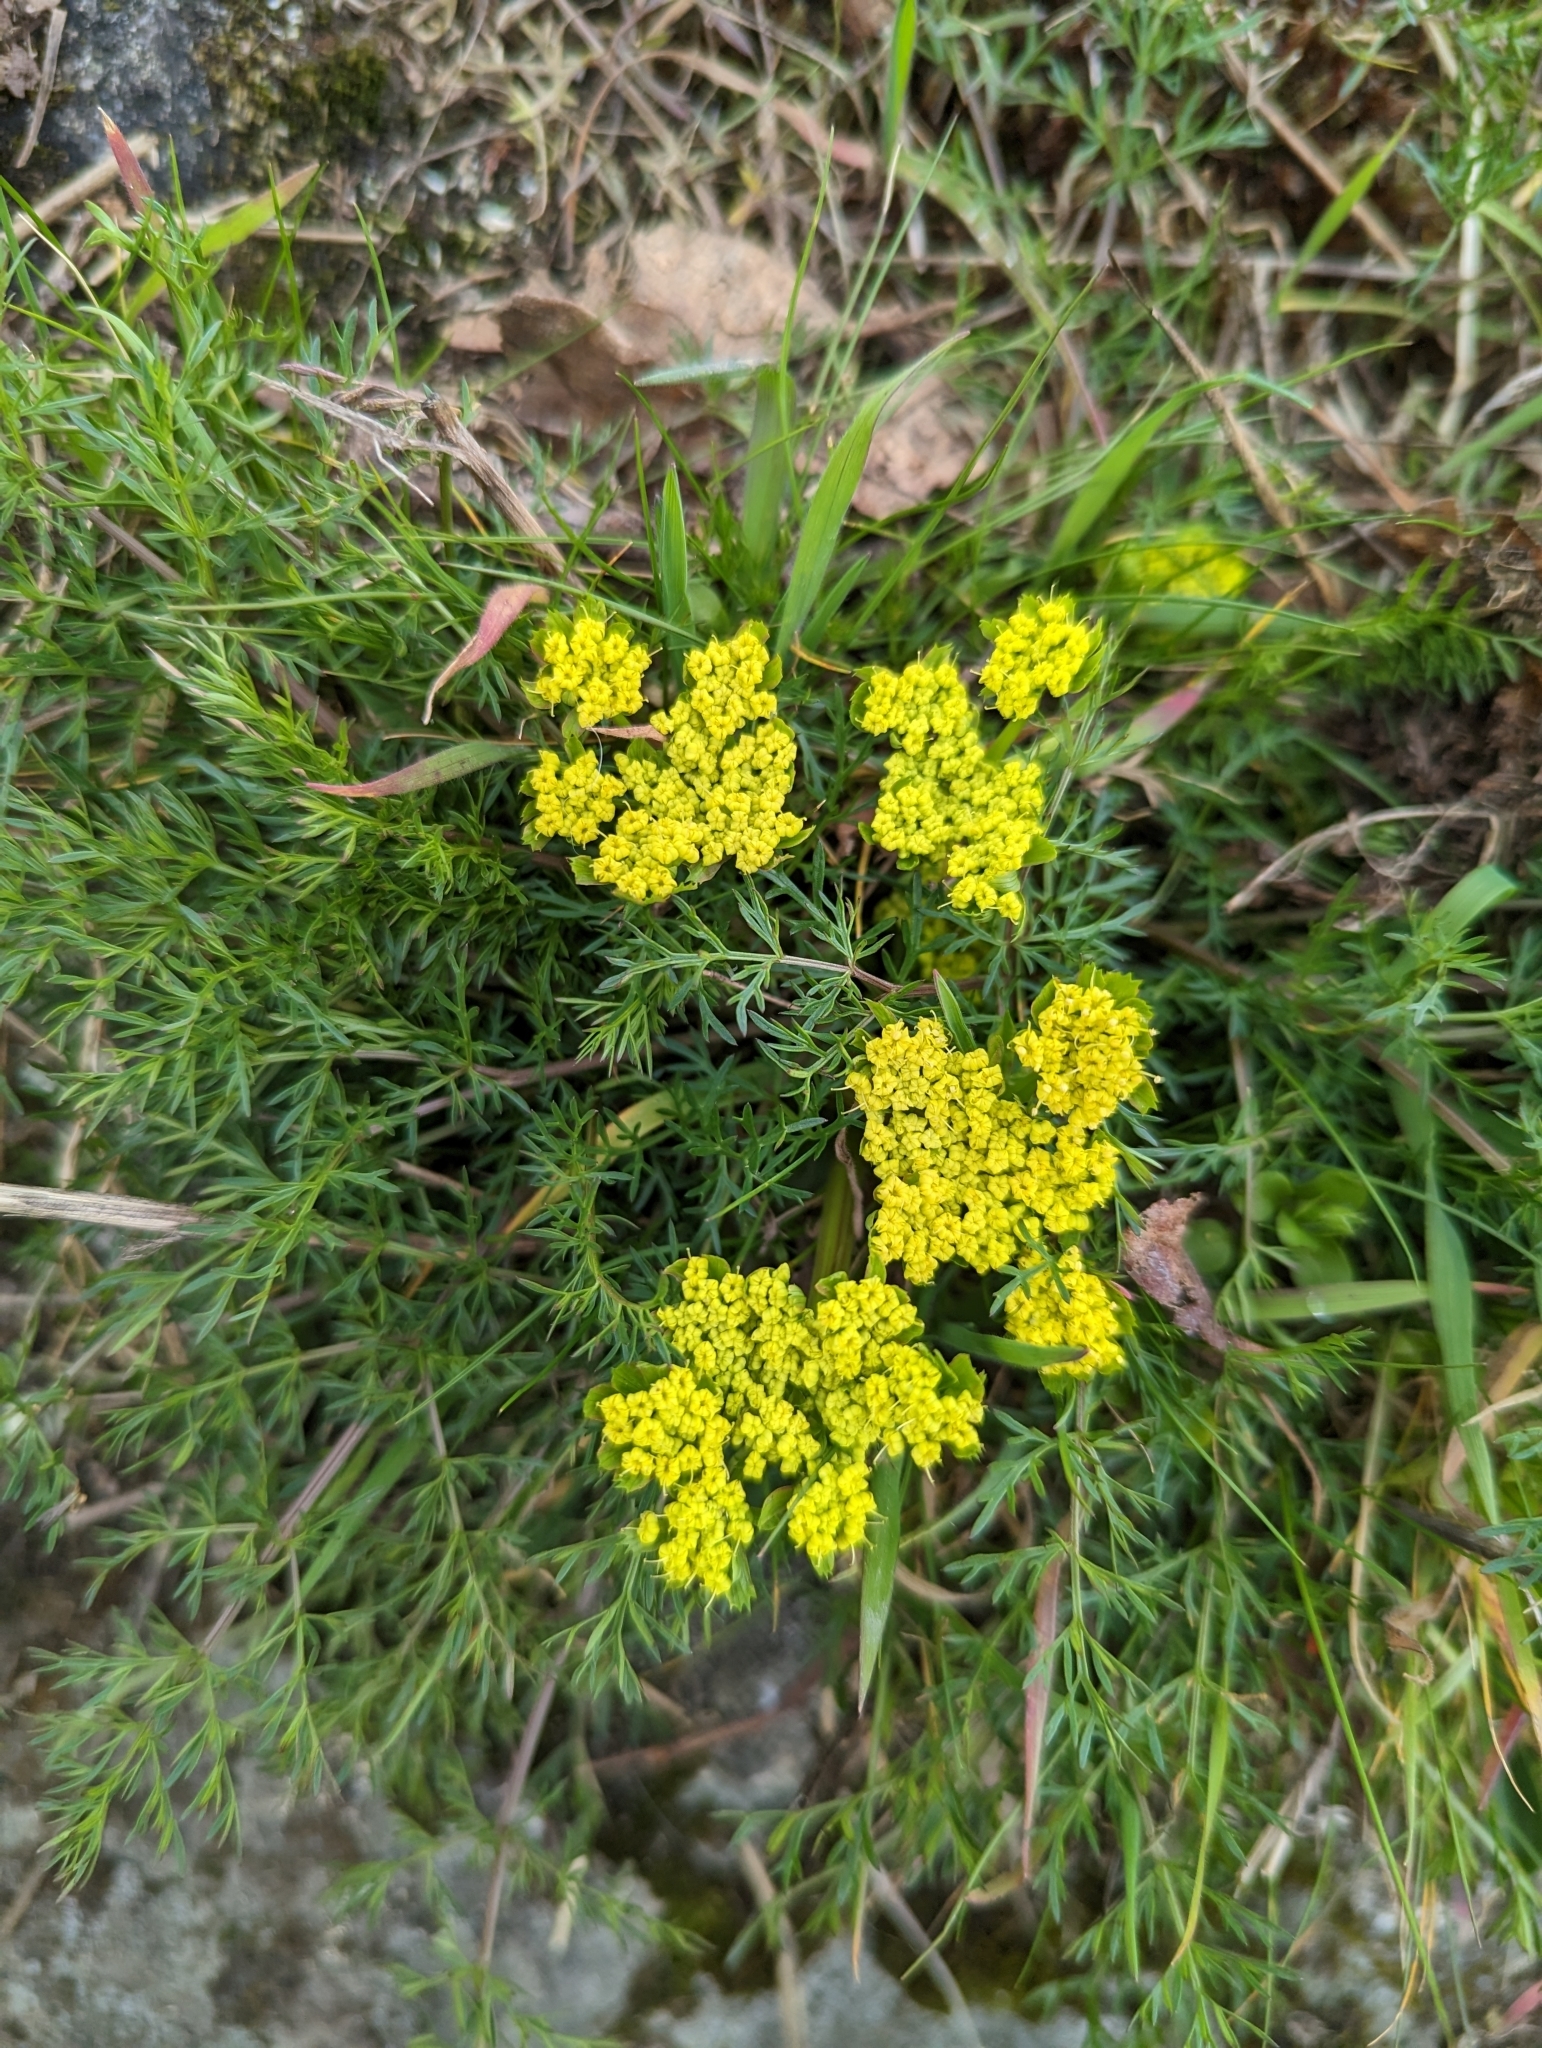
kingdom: Plantae
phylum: Tracheophyta
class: Magnoliopsida
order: Apiales
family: Apiaceae
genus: Lomatium
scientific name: Lomatium utriculatum
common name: Fine-leaf desert-parsley
